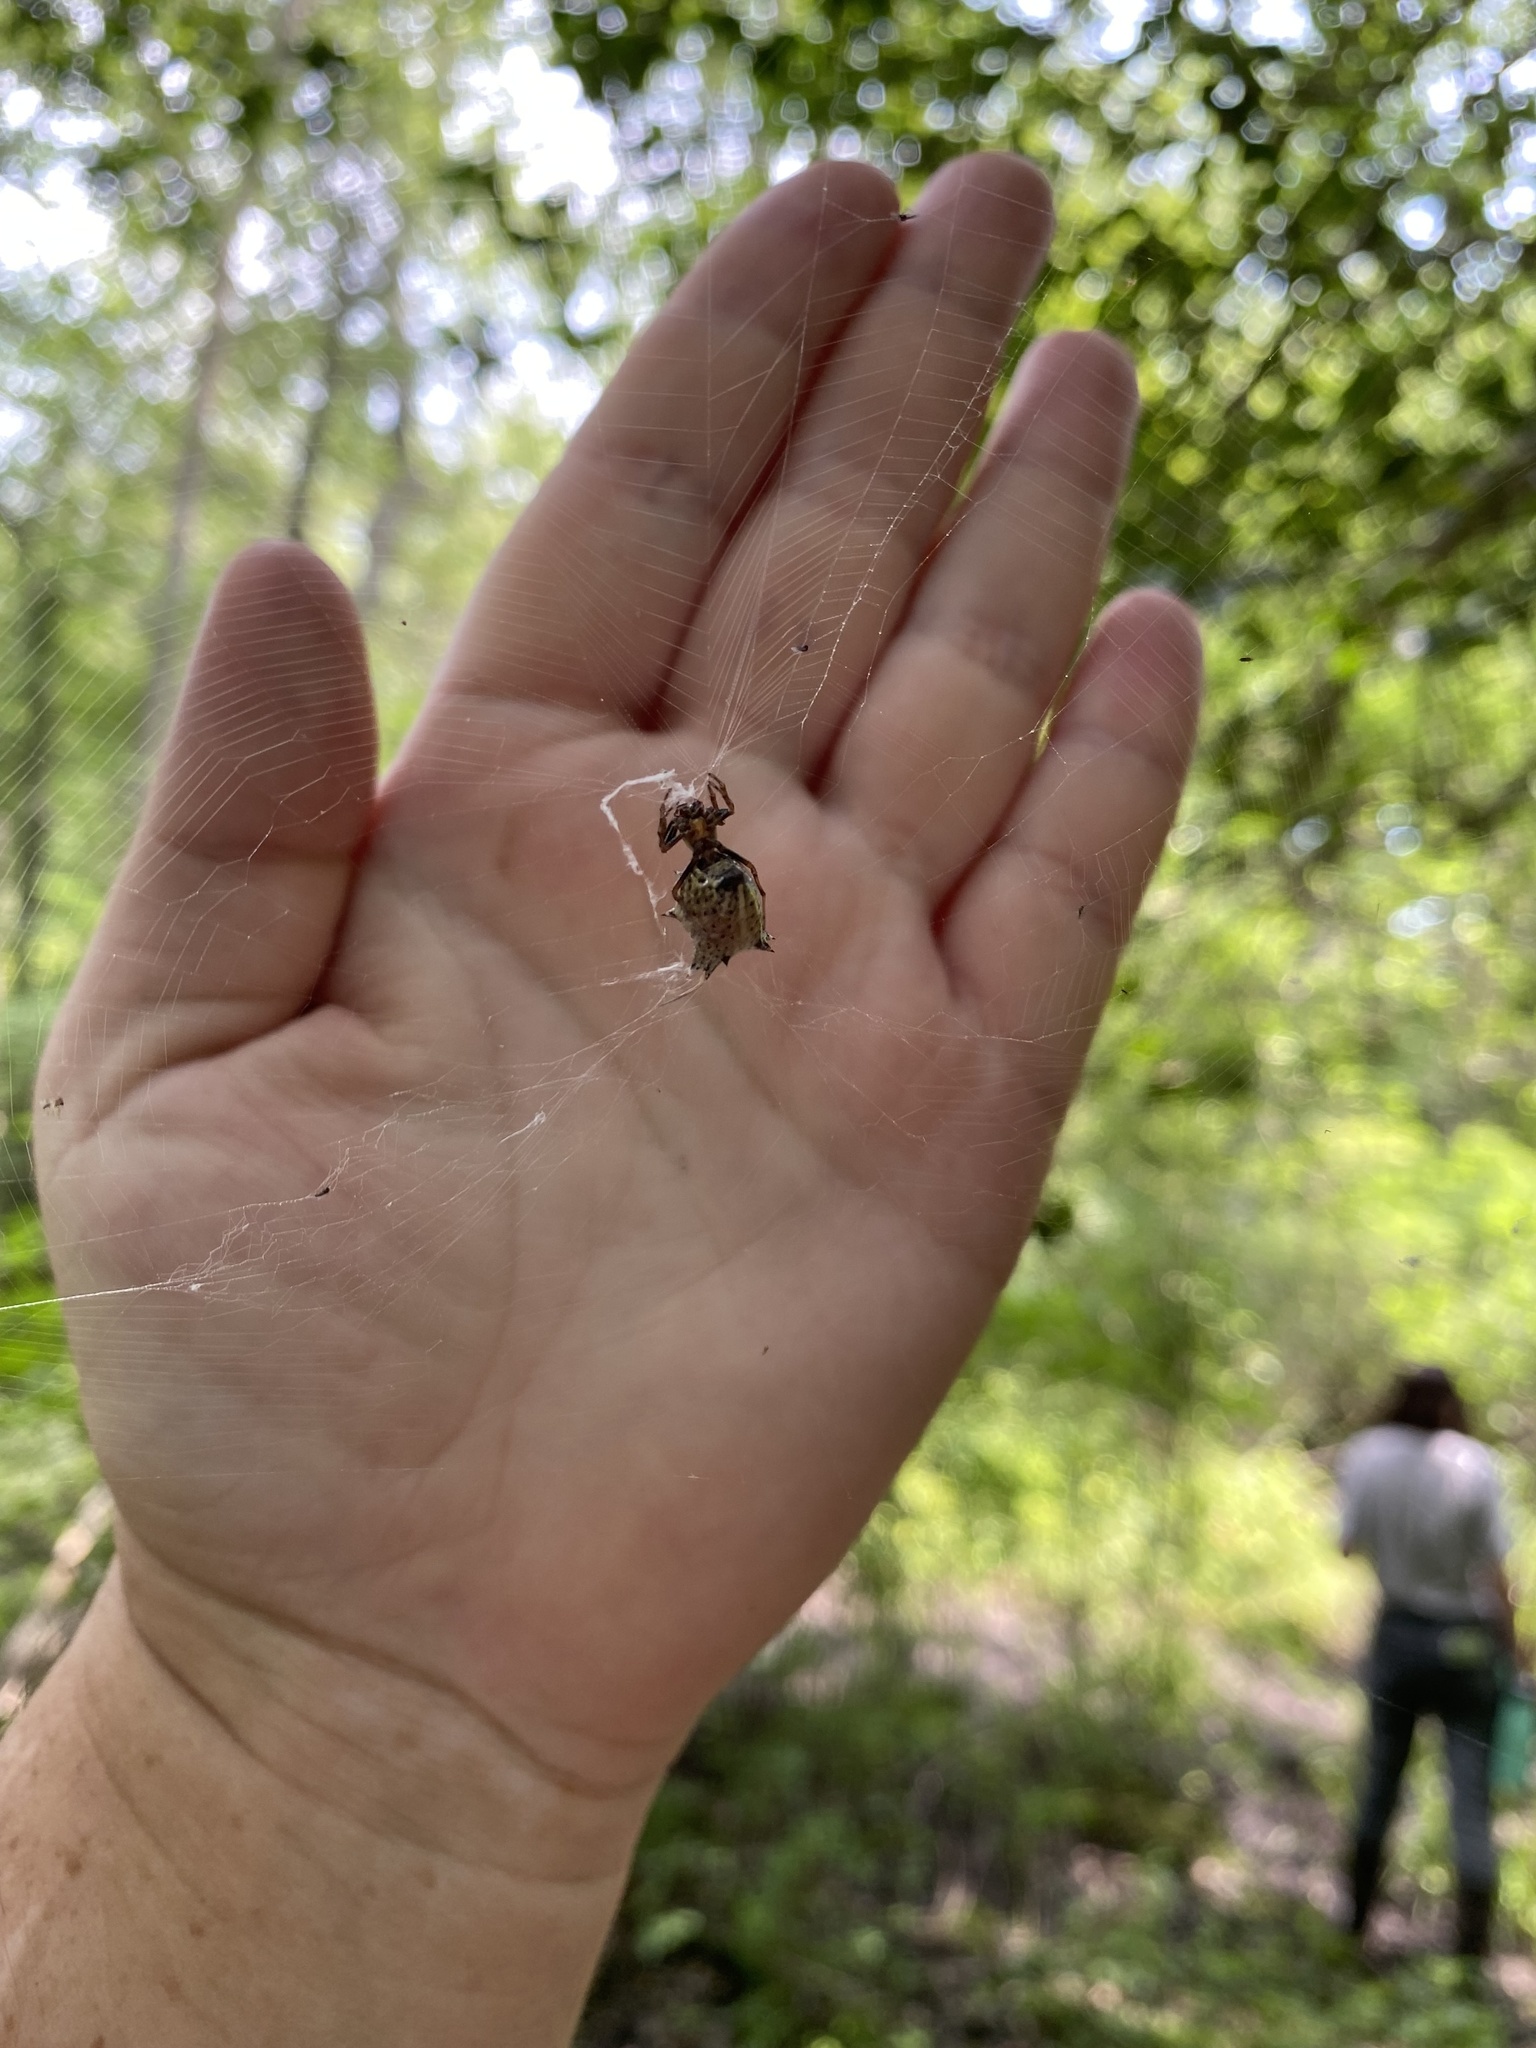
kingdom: Animalia
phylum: Arthropoda
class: Arachnida
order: Araneae
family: Araneidae
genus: Micrathena
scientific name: Micrathena gracilis
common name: Orb weavers
